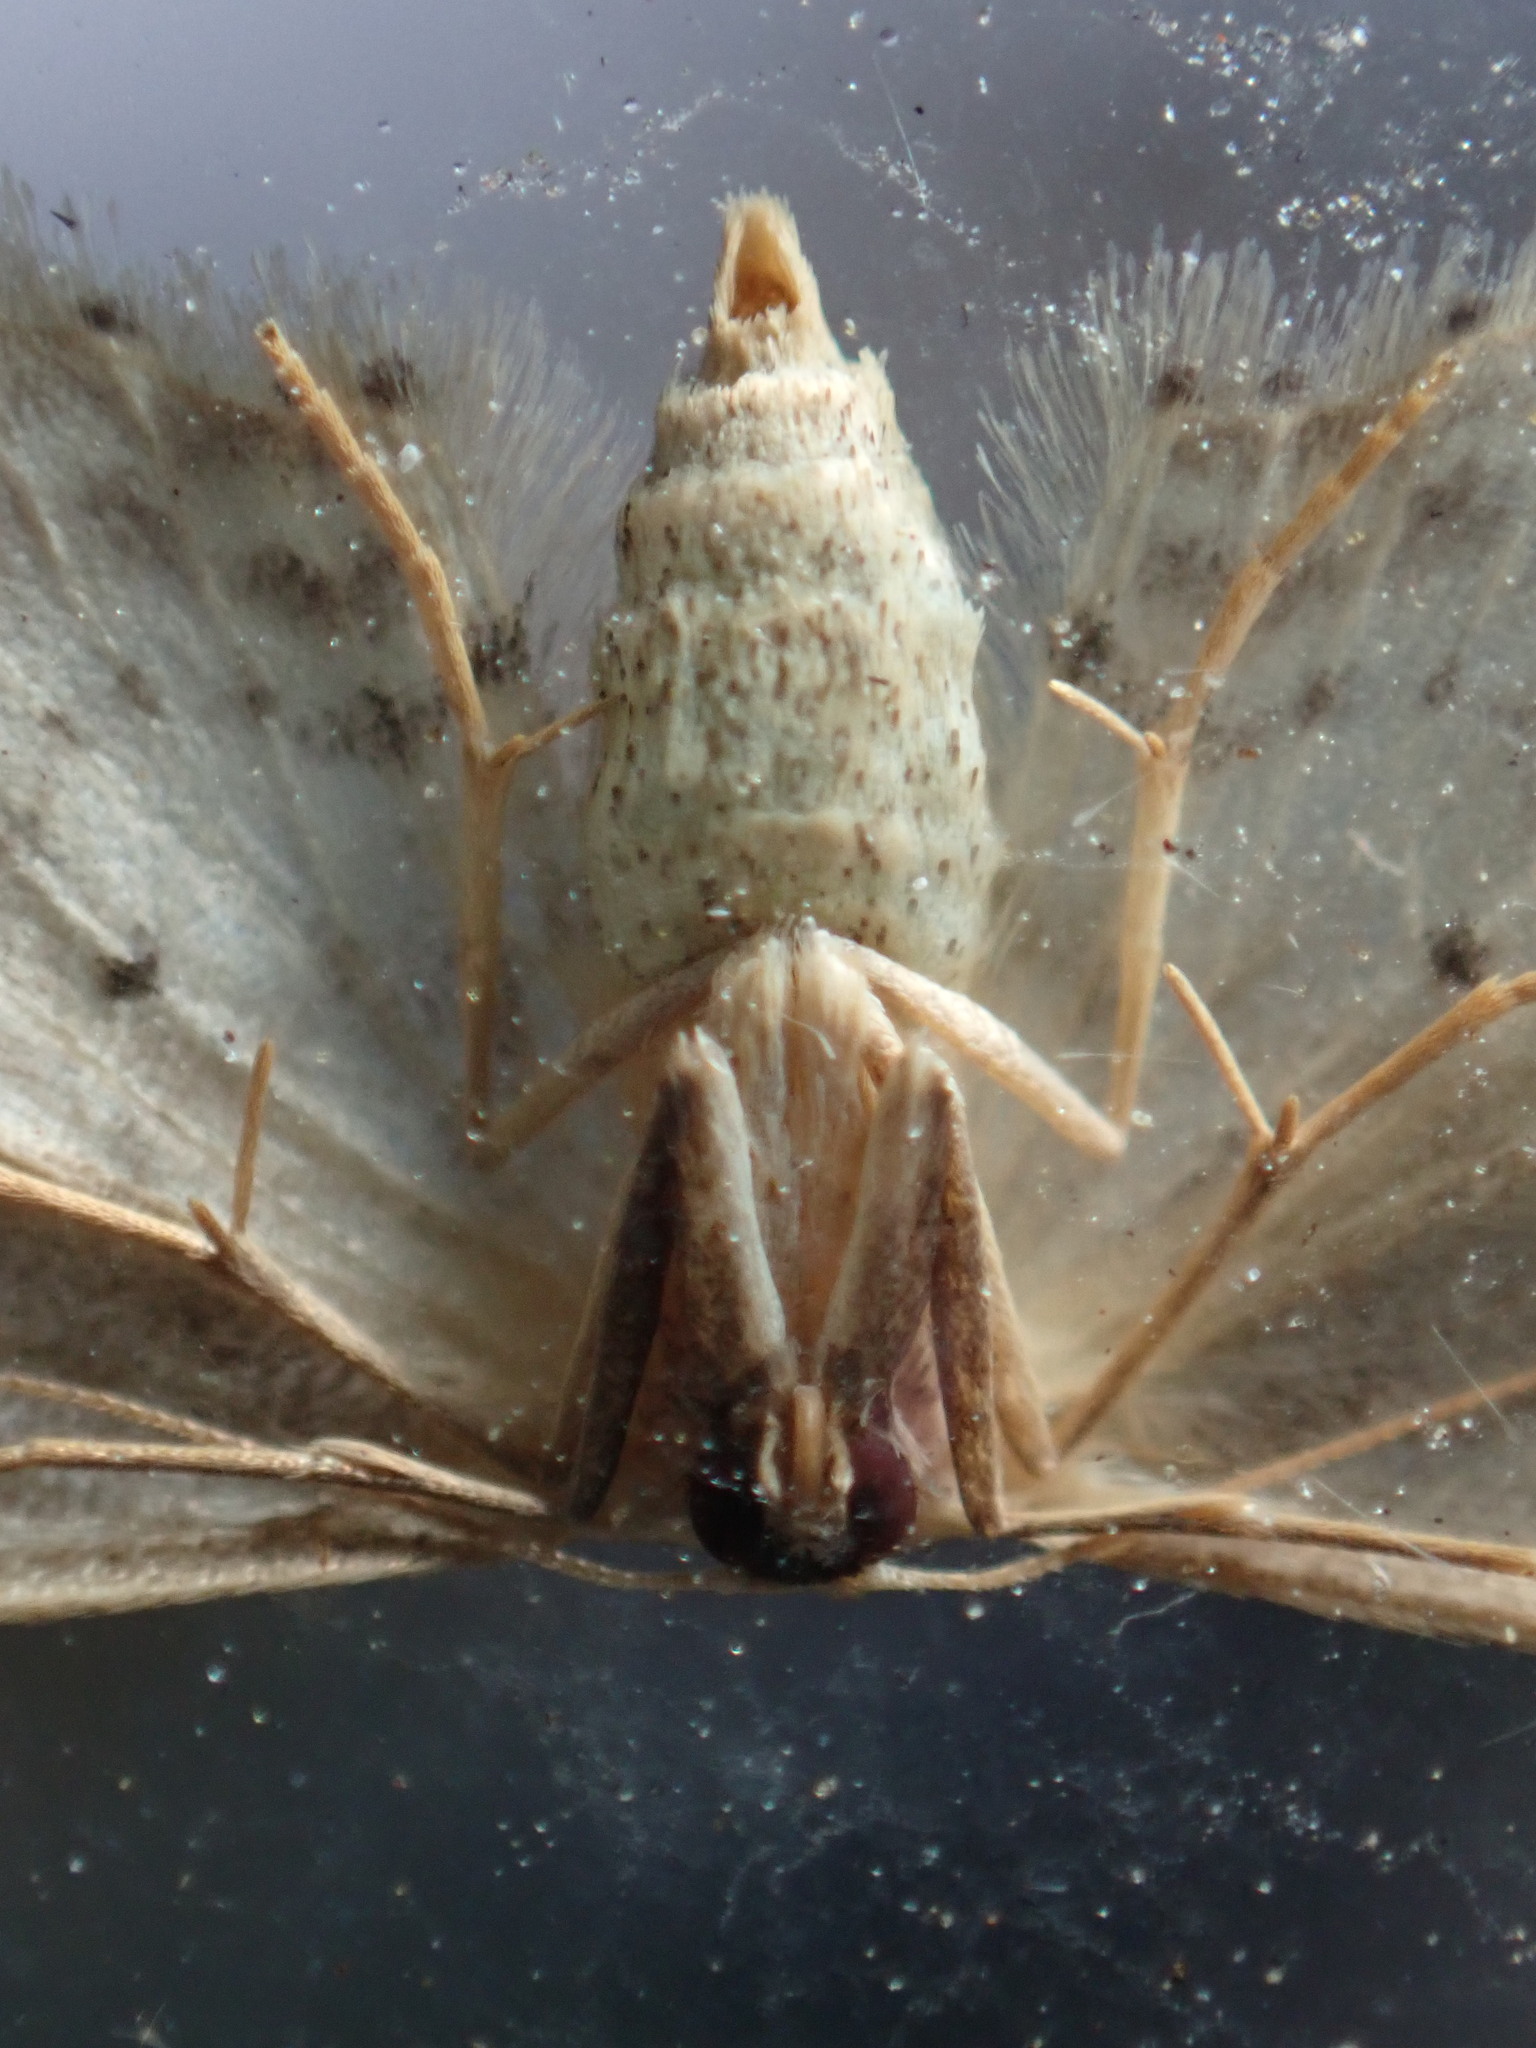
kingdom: Animalia
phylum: Arthropoda
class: Insecta
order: Lepidoptera
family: Geometridae
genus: Idaea
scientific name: Idaea dimidiata
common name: Single-dotted wave
